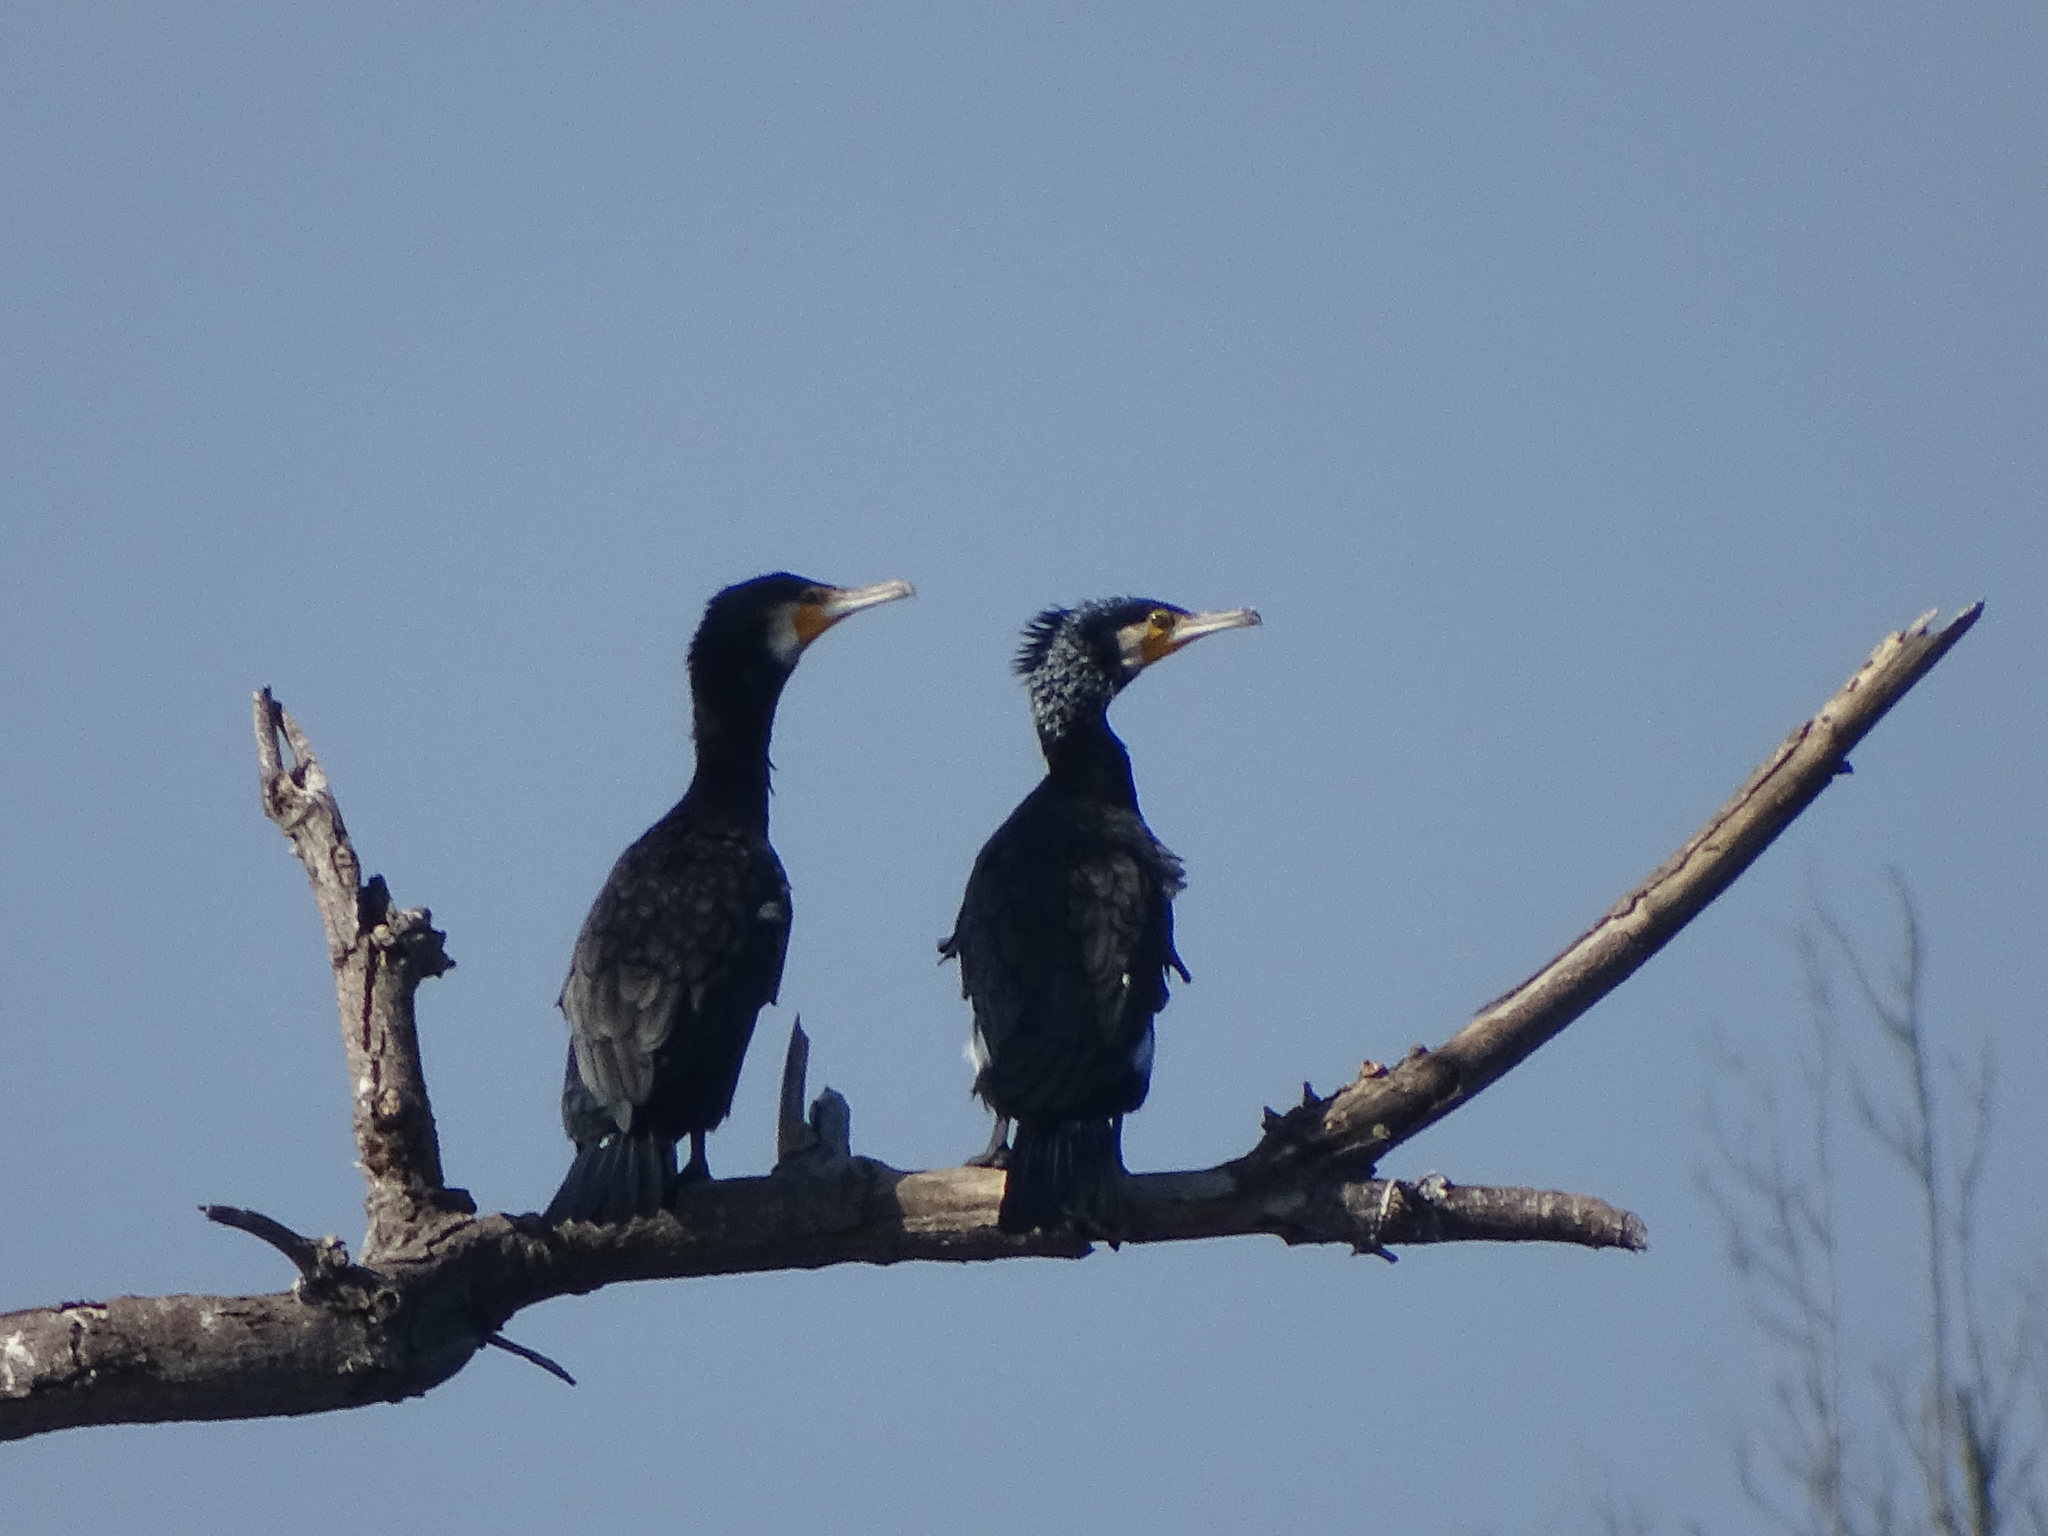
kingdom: Animalia
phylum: Chordata
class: Aves
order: Suliformes
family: Phalacrocoracidae
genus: Phalacrocorax
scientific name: Phalacrocorax carbo
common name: Great cormorant
